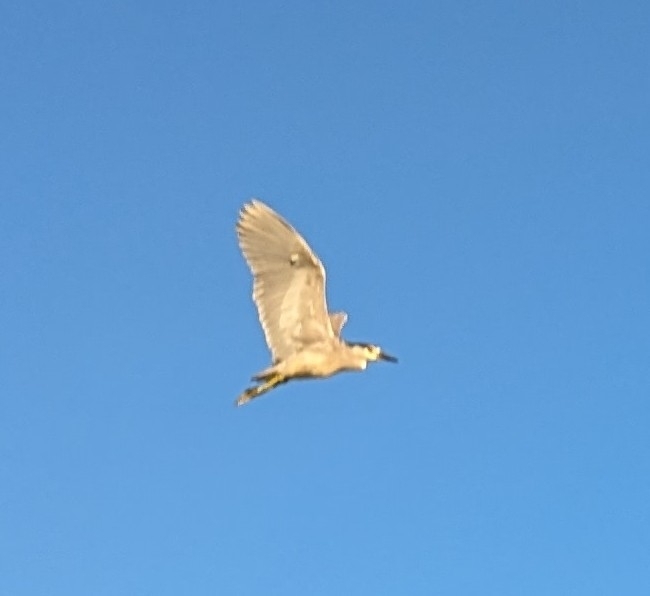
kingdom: Animalia
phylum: Chordata
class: Aves
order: Pelecaniformes
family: Ardeidae
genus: Nycticorax
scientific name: Nycticorax nycticorax
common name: Black-crowned night heron
